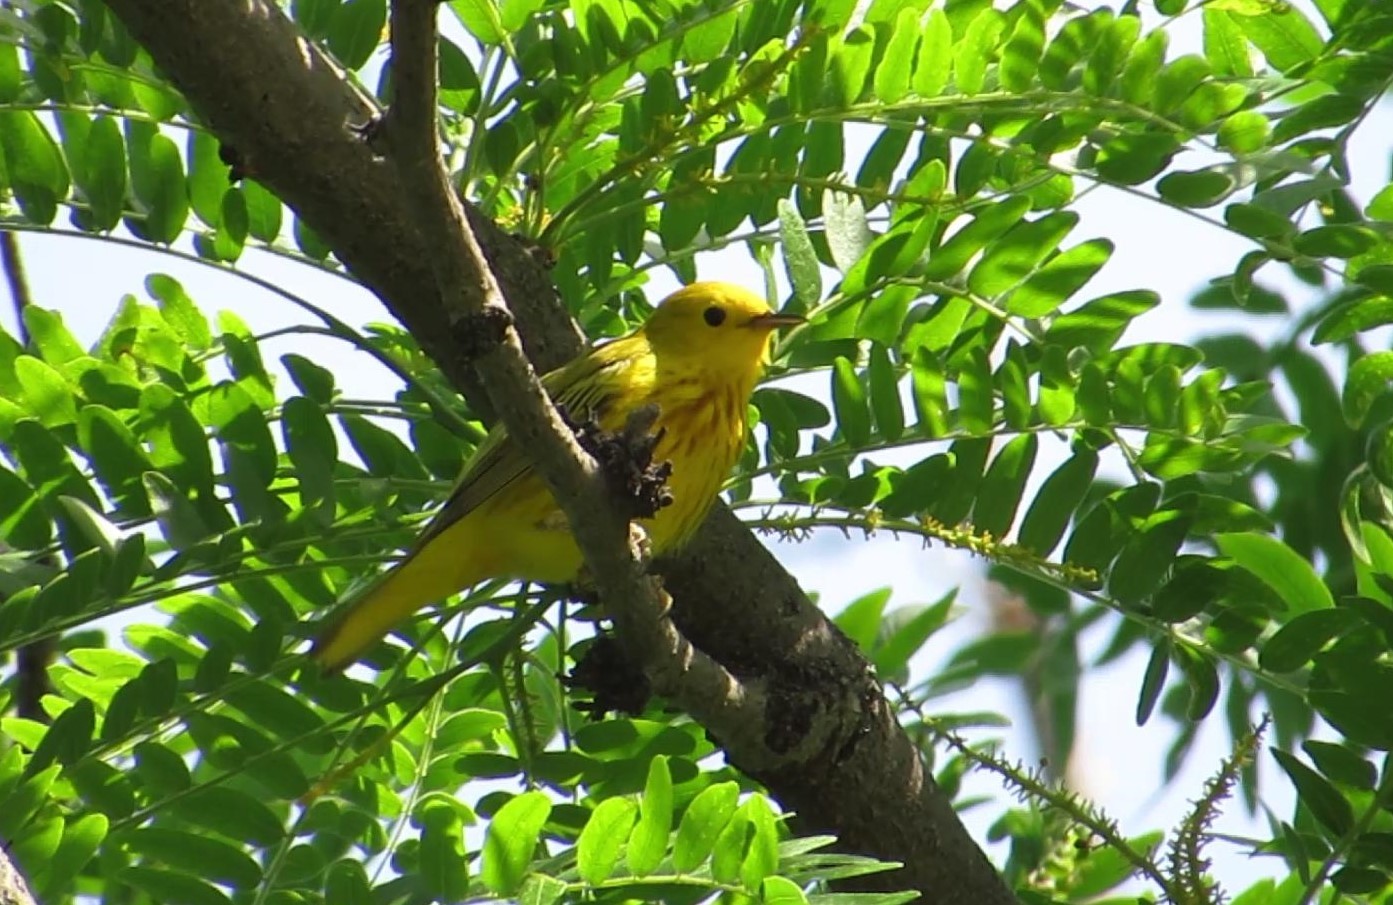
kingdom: Animalia
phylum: Chordata
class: Aves
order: Passeriformes
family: Parulidae
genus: Setophaga
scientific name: Setophaga petechia
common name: Yellow warbler
